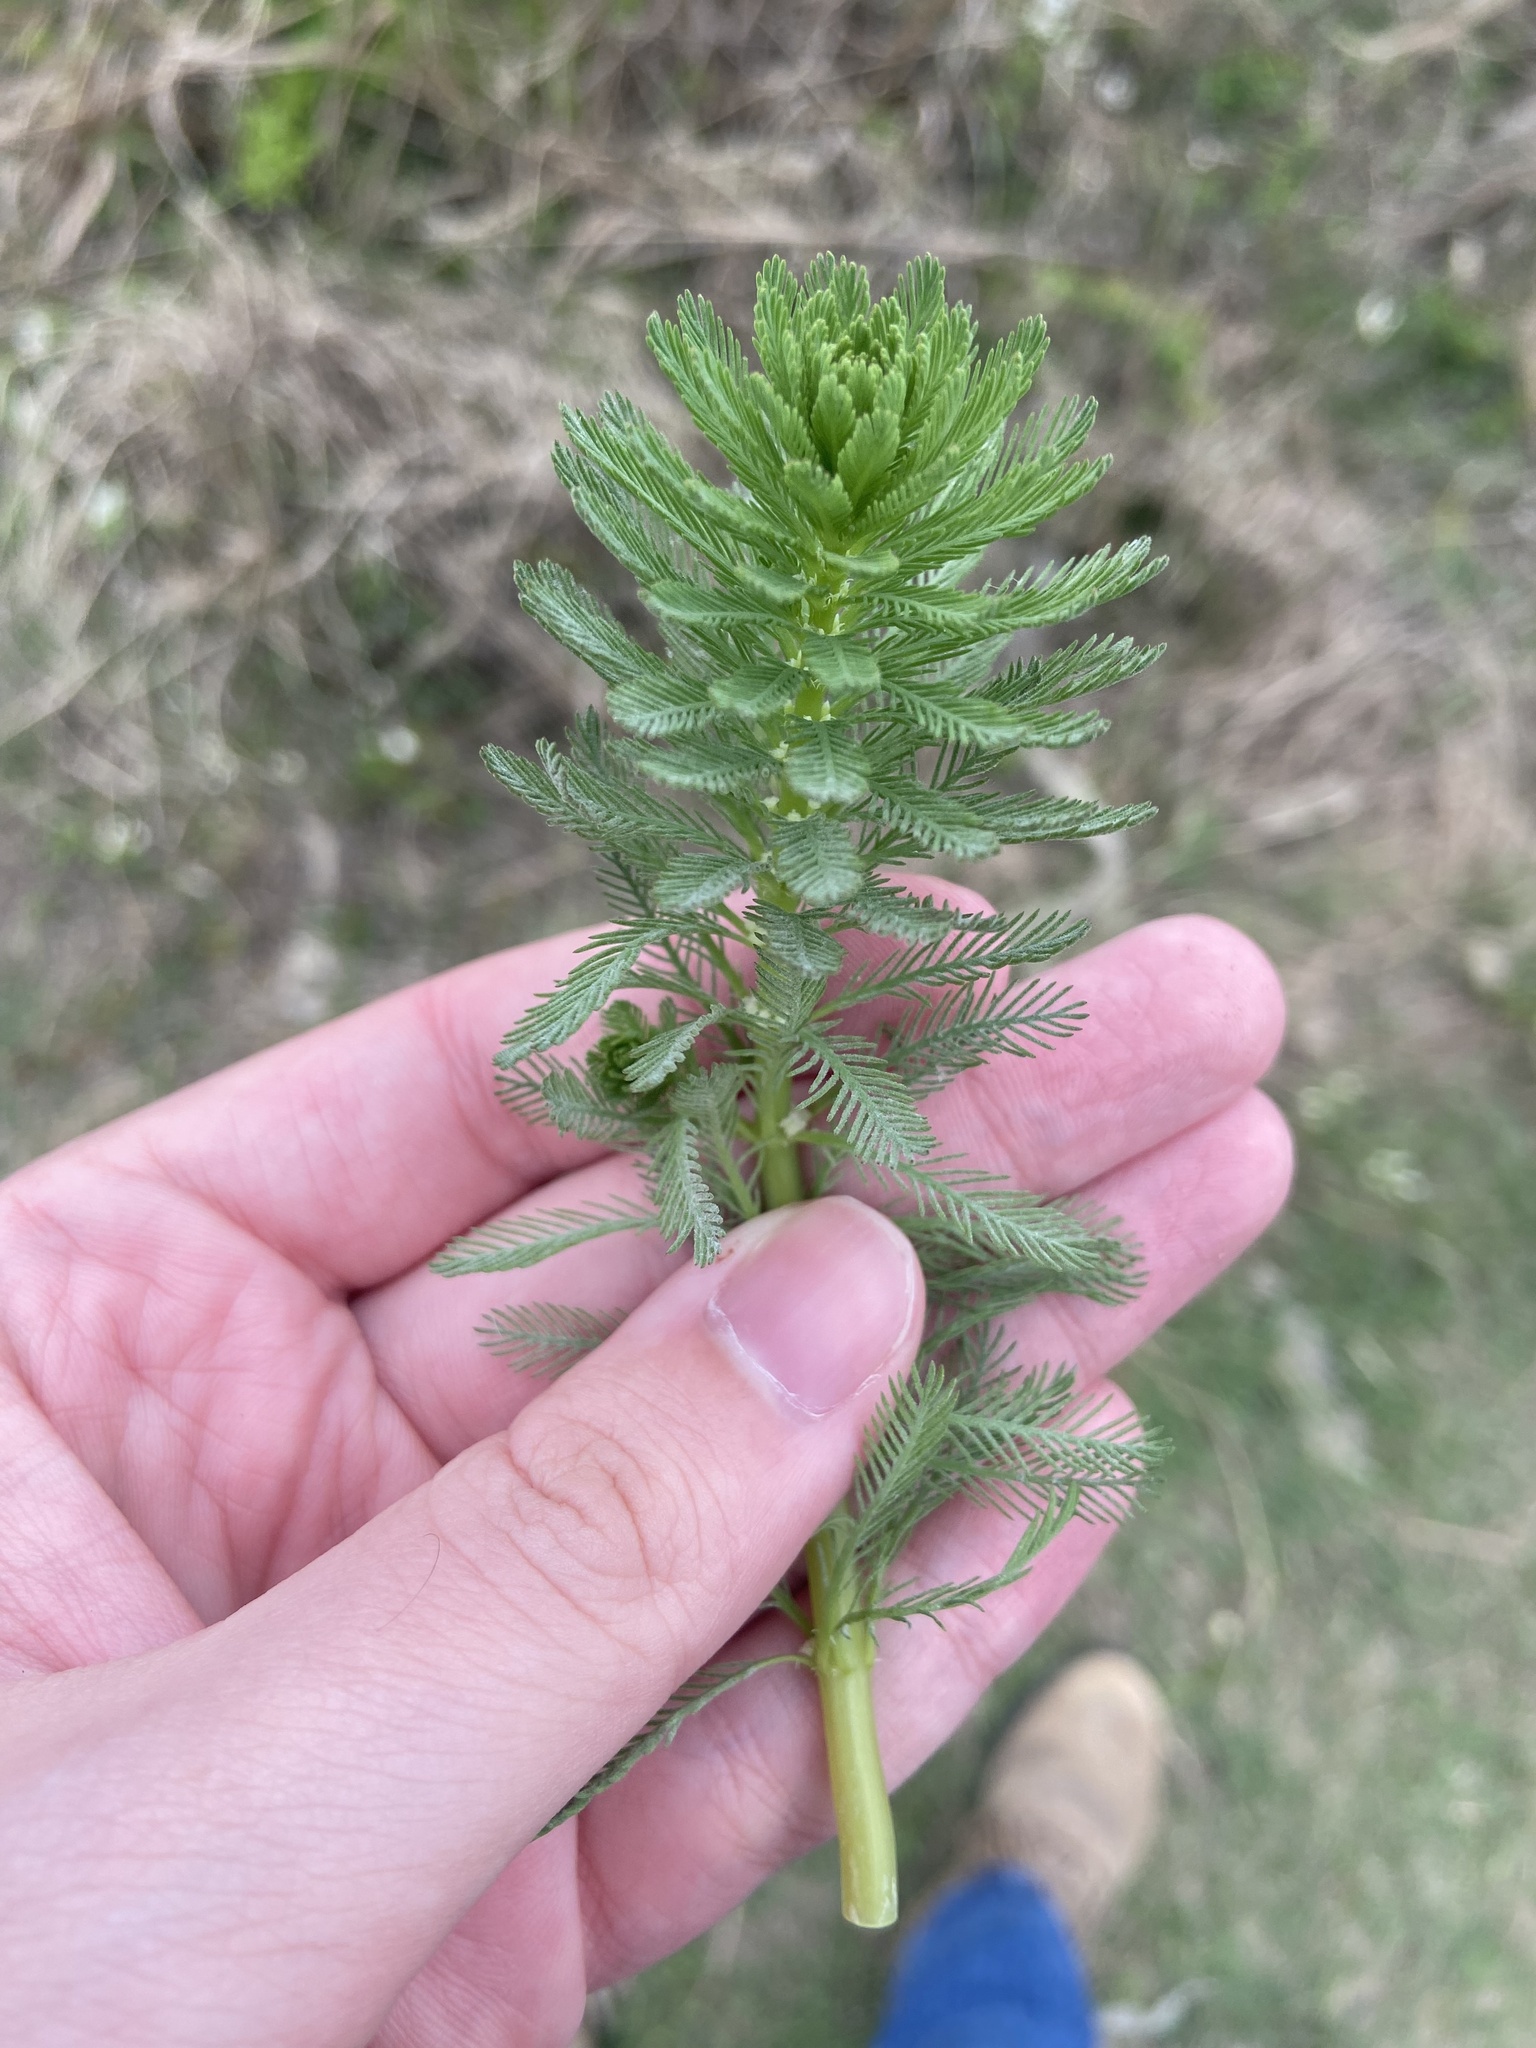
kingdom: Plantae
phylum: Tracheophyta
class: Magnoliopsida
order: Saxifragales
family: Haloragaceae
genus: Myriophyllum
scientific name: Myriophyllum aquaticum
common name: Parrot's feather
